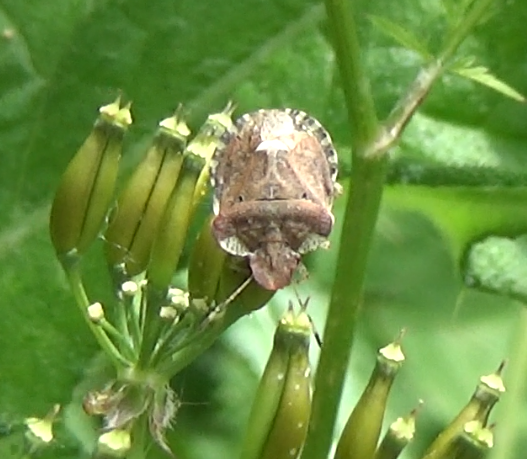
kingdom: Animalia
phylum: Arthropoda
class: Insecta
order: Hemiptera
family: Pentatomidae
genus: Dyroderes
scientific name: Dyroderes umbraculatus
